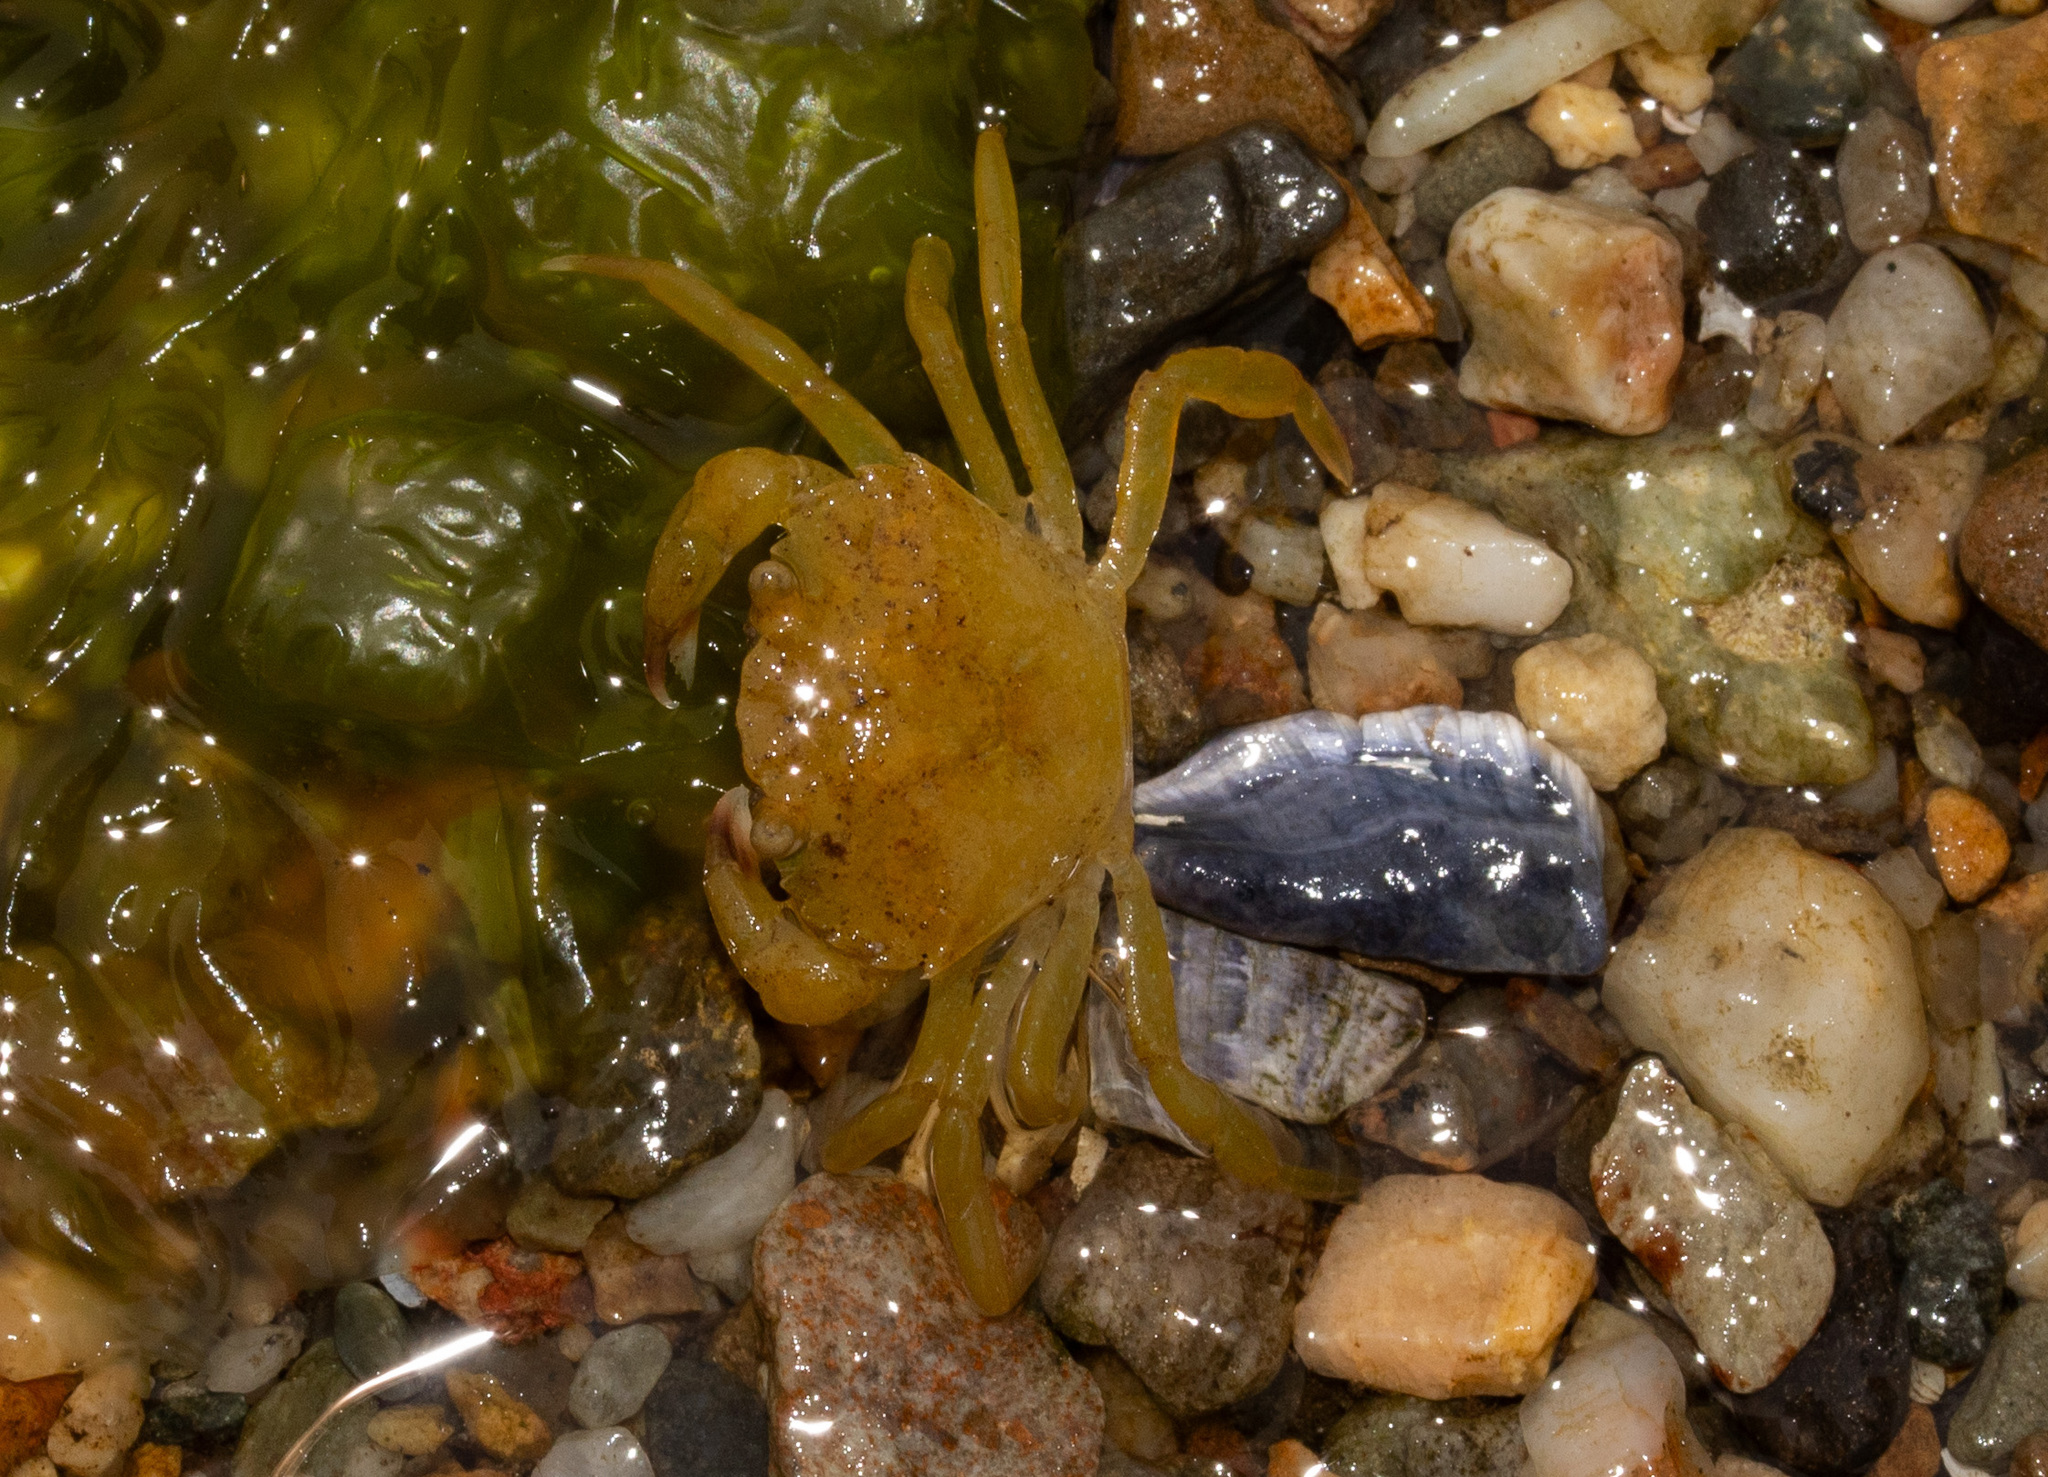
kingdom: Animalia
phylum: Arthropoda
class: Malacostraca
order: Decapoda
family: Carcinidae
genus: Carcinus
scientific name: Carcinus maenas
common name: European green crab
